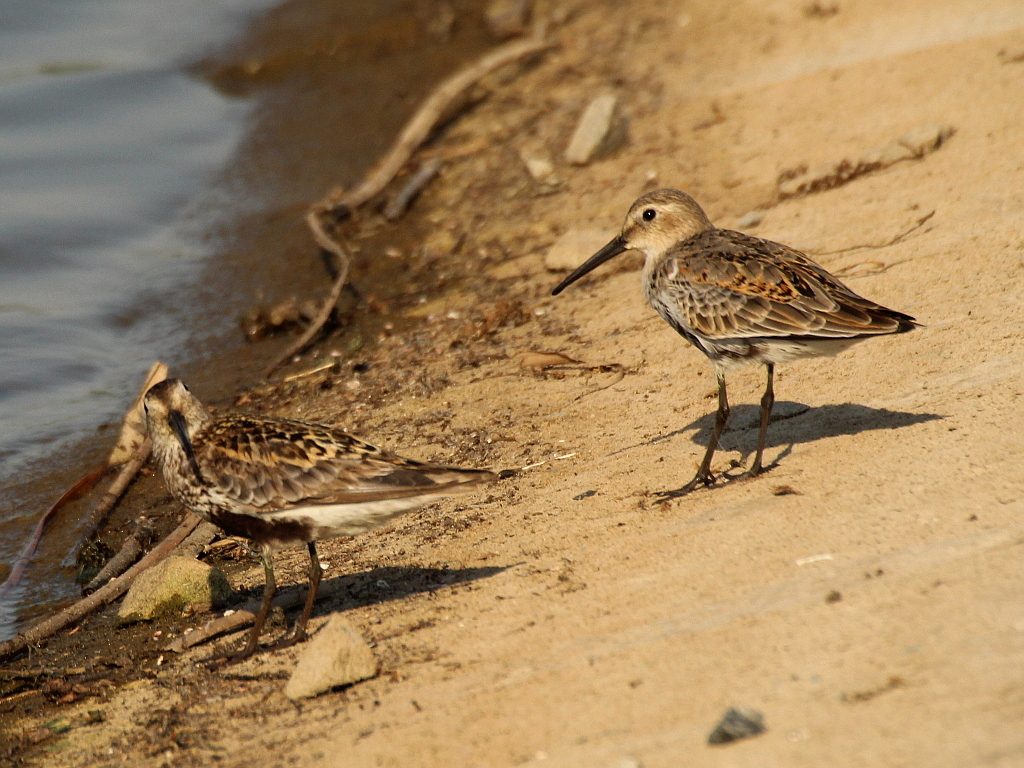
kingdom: Animalia
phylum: Chordata
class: Aves
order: Charadriiformes
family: Scolopacidae
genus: Calidris
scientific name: Calidris alpina
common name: Dunlin
